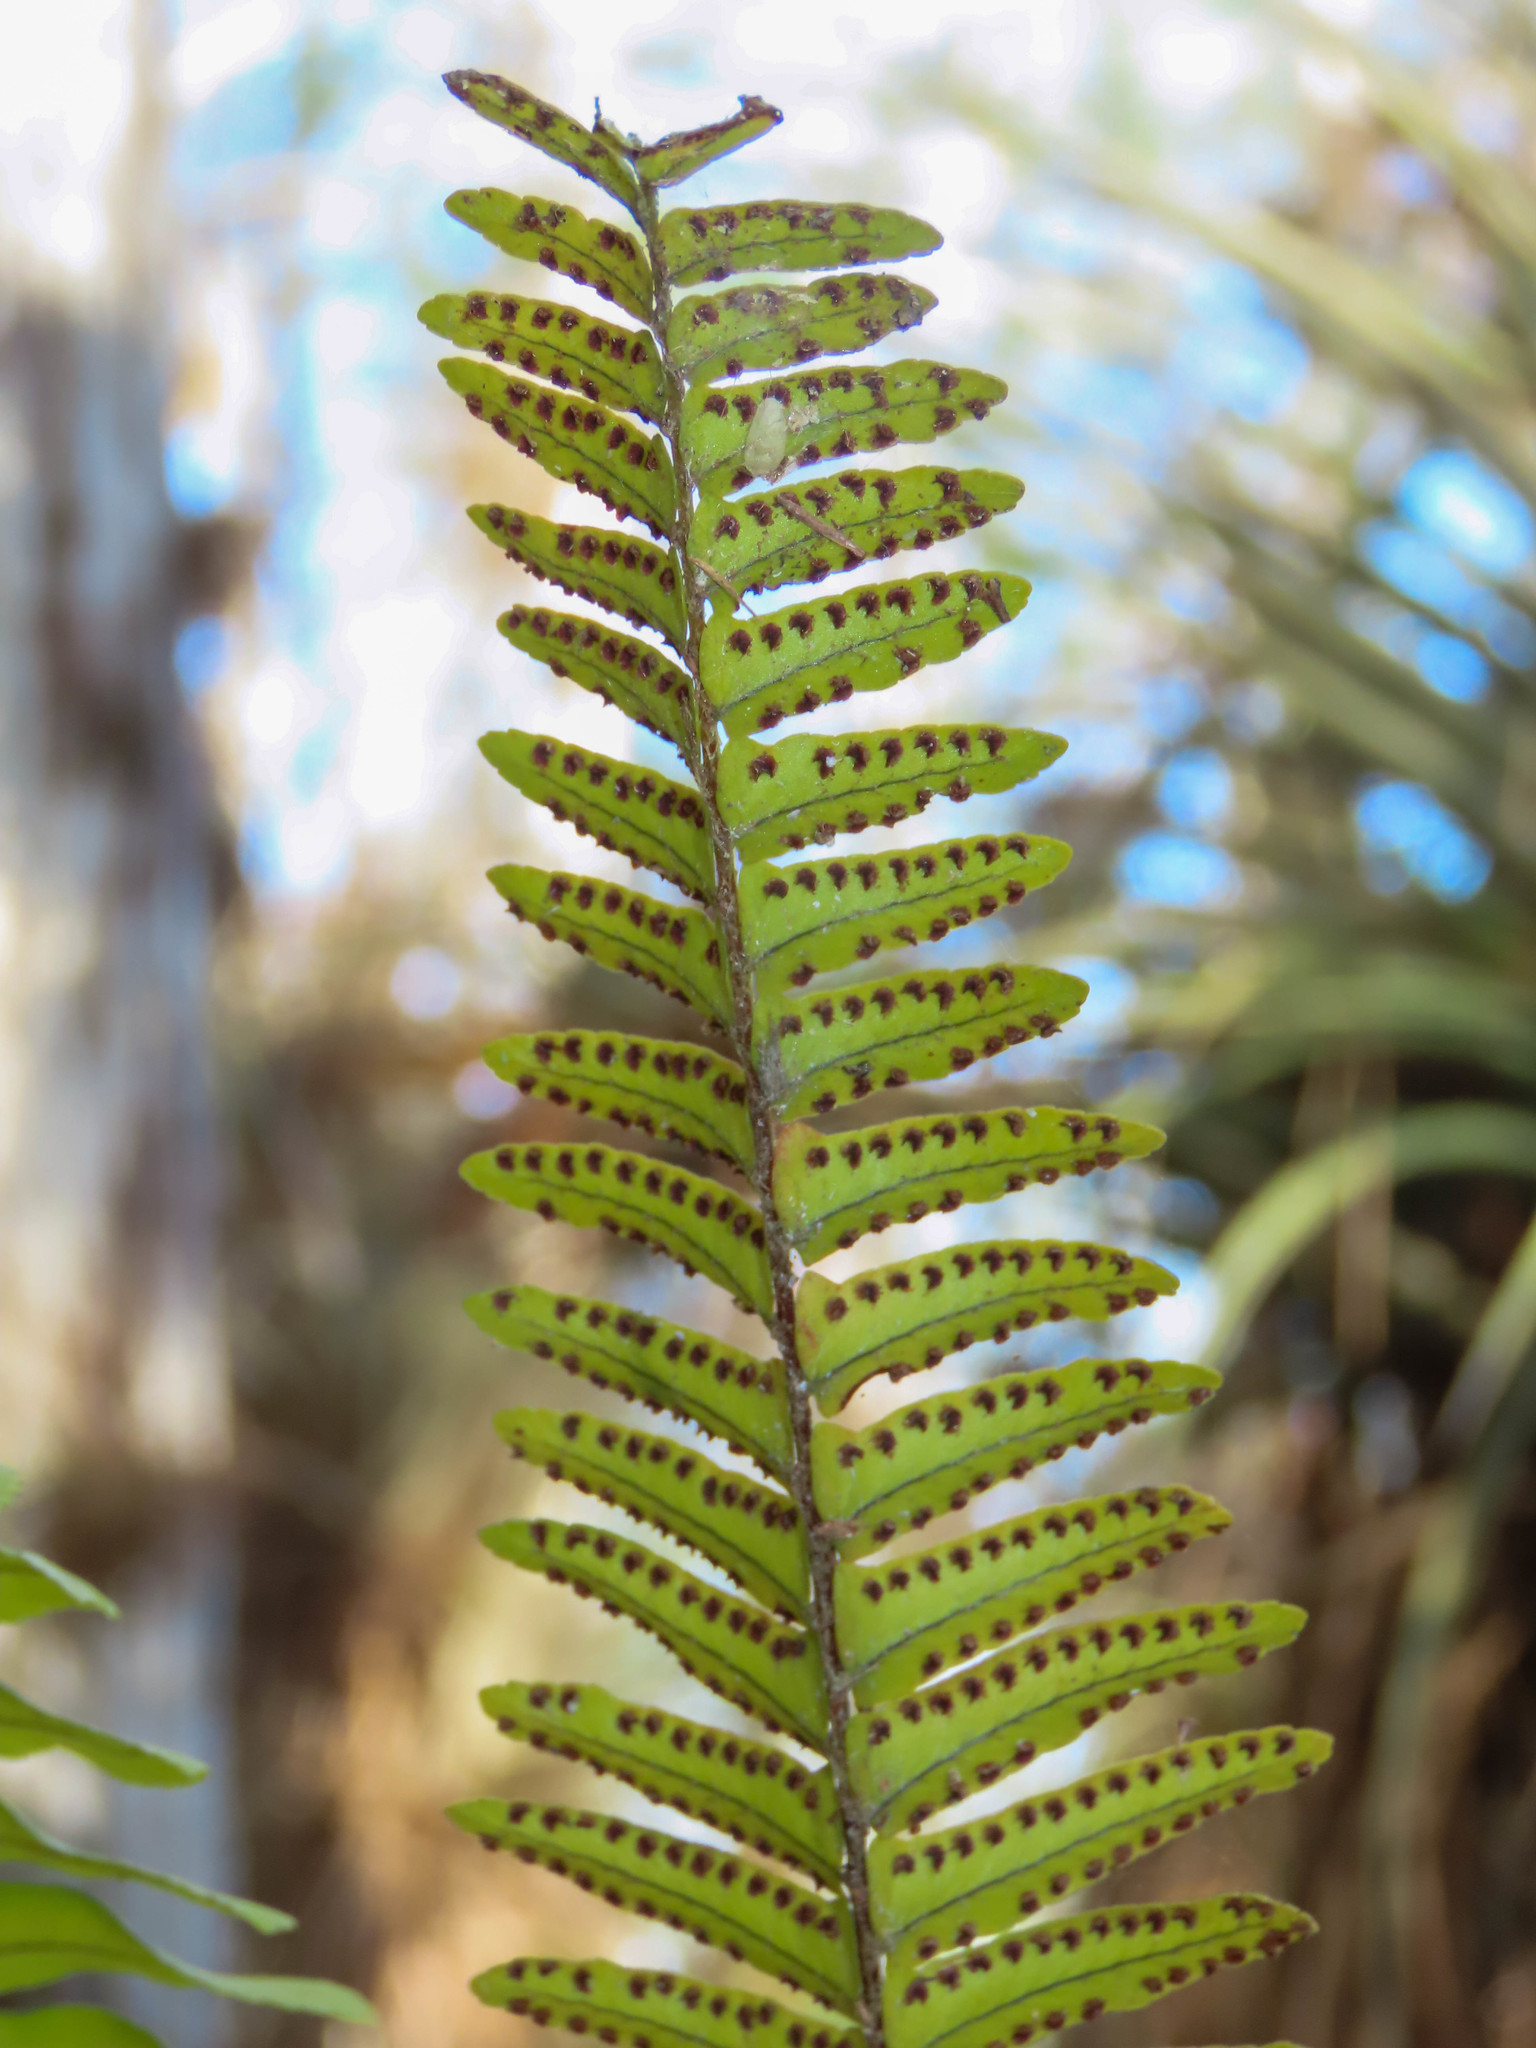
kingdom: Plantae
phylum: Tracheophyta
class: Polypodiopsida
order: Polypodiales
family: Nephrolepidaceae
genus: Nephrolepis
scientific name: Nephrolepis exaltata
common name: Sword fern
